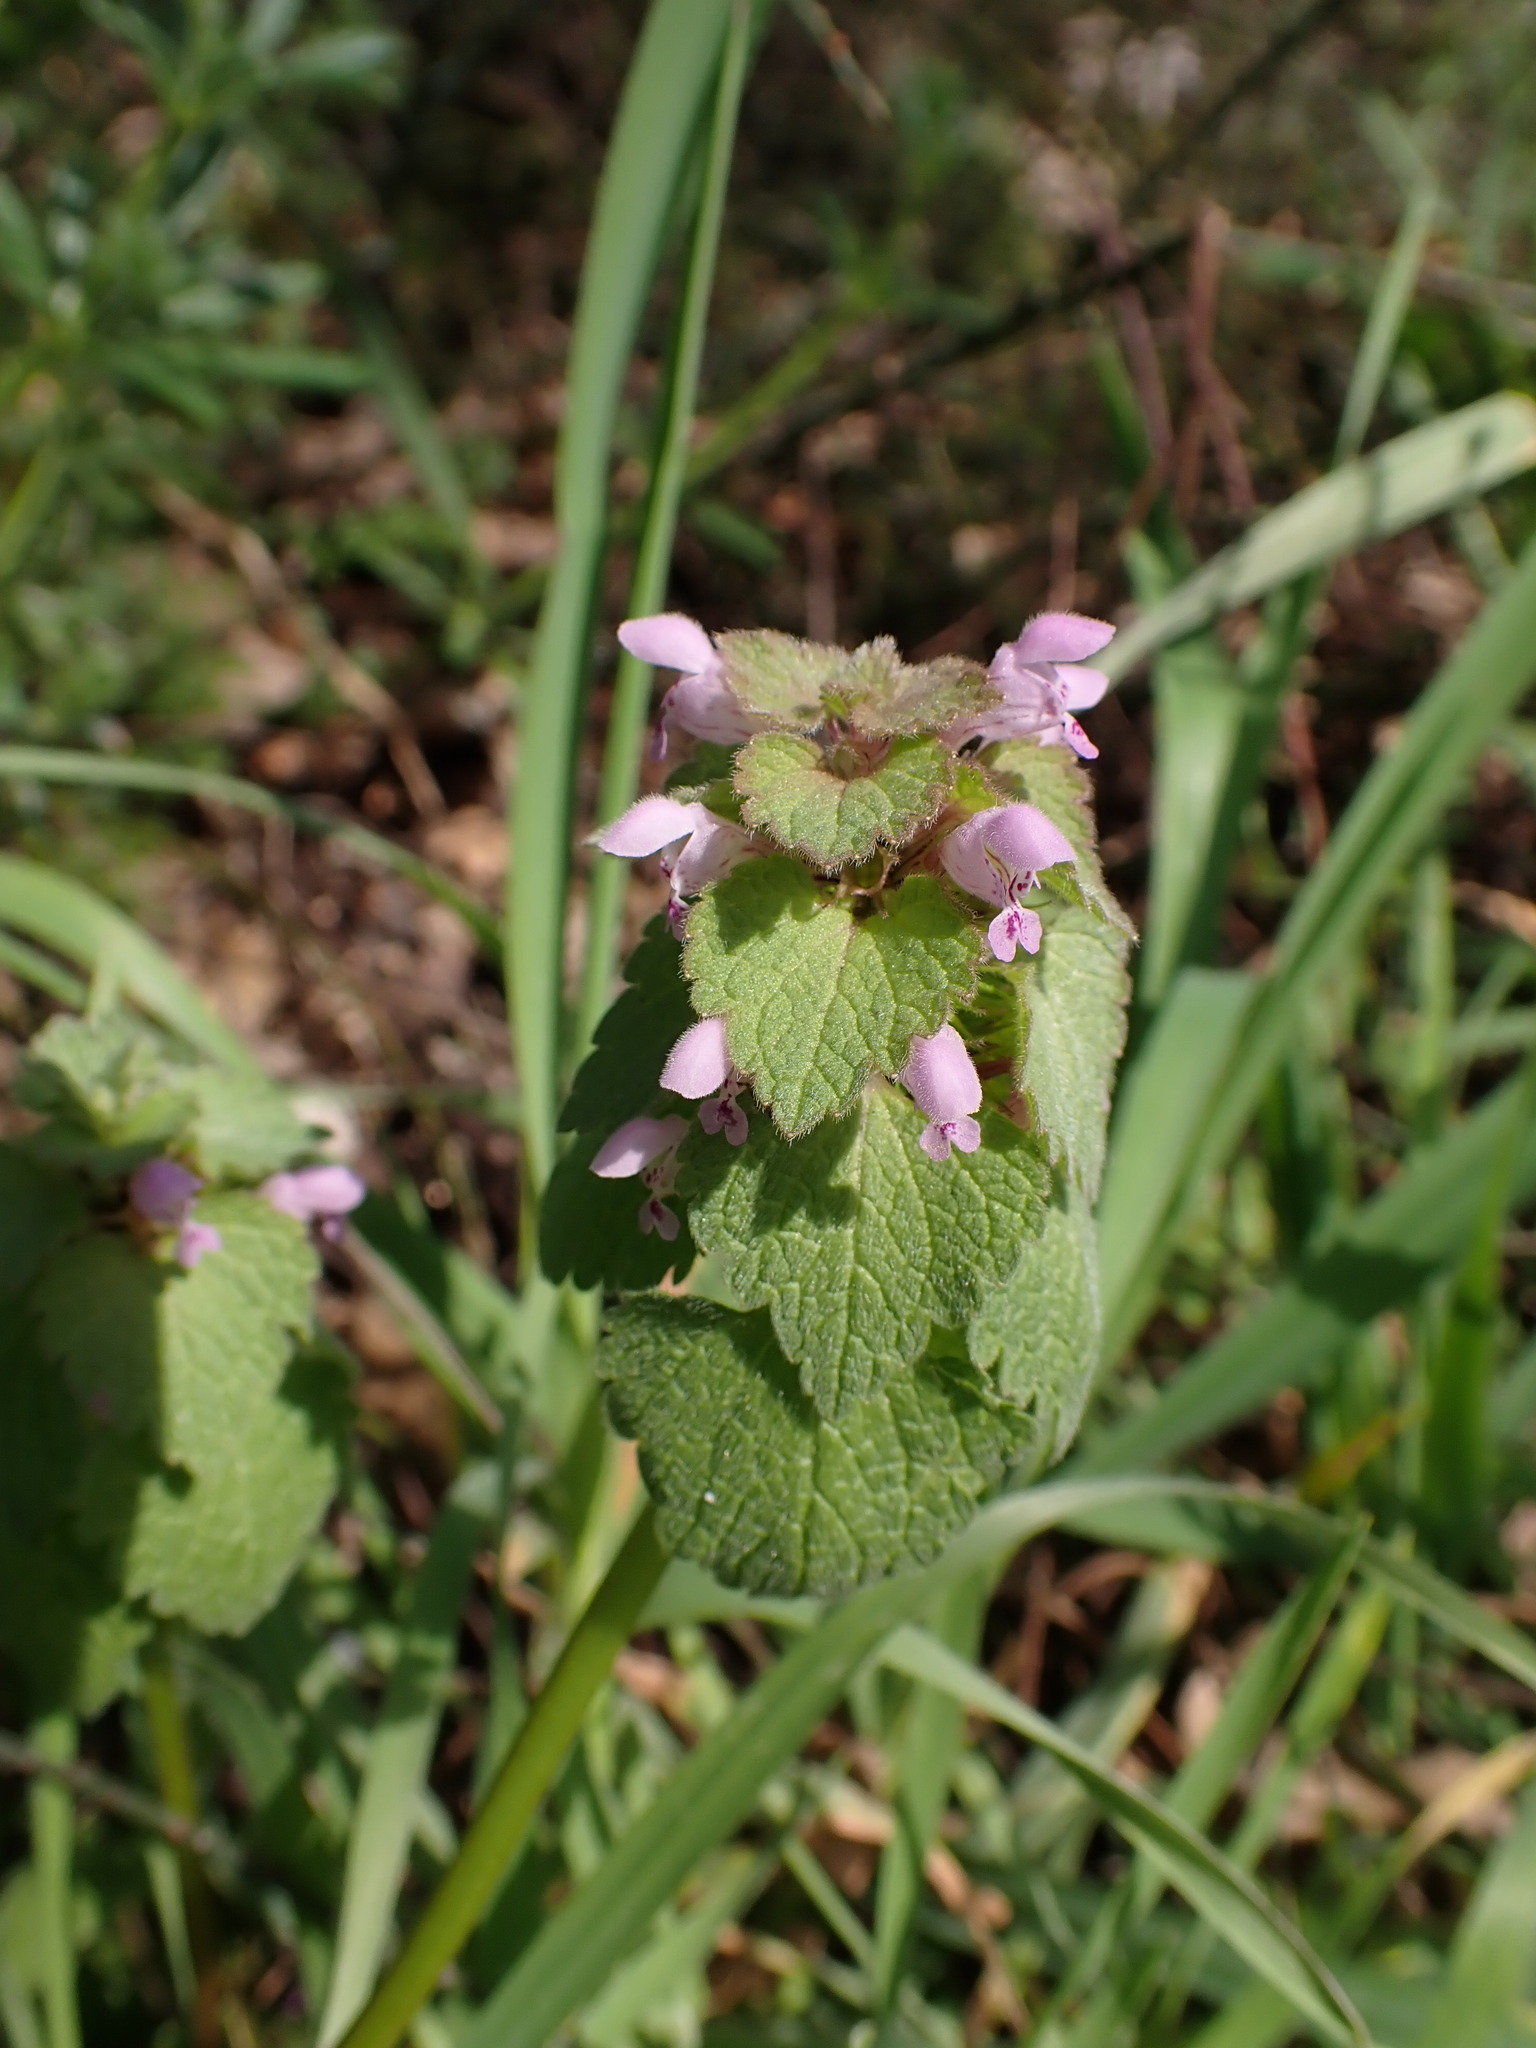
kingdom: Plantae
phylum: Tracheophyta
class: Magnoliopsida
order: Lamiales
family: Lamiaceae
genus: Lamium
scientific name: Lamium purpureum
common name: Red dead-nettle
